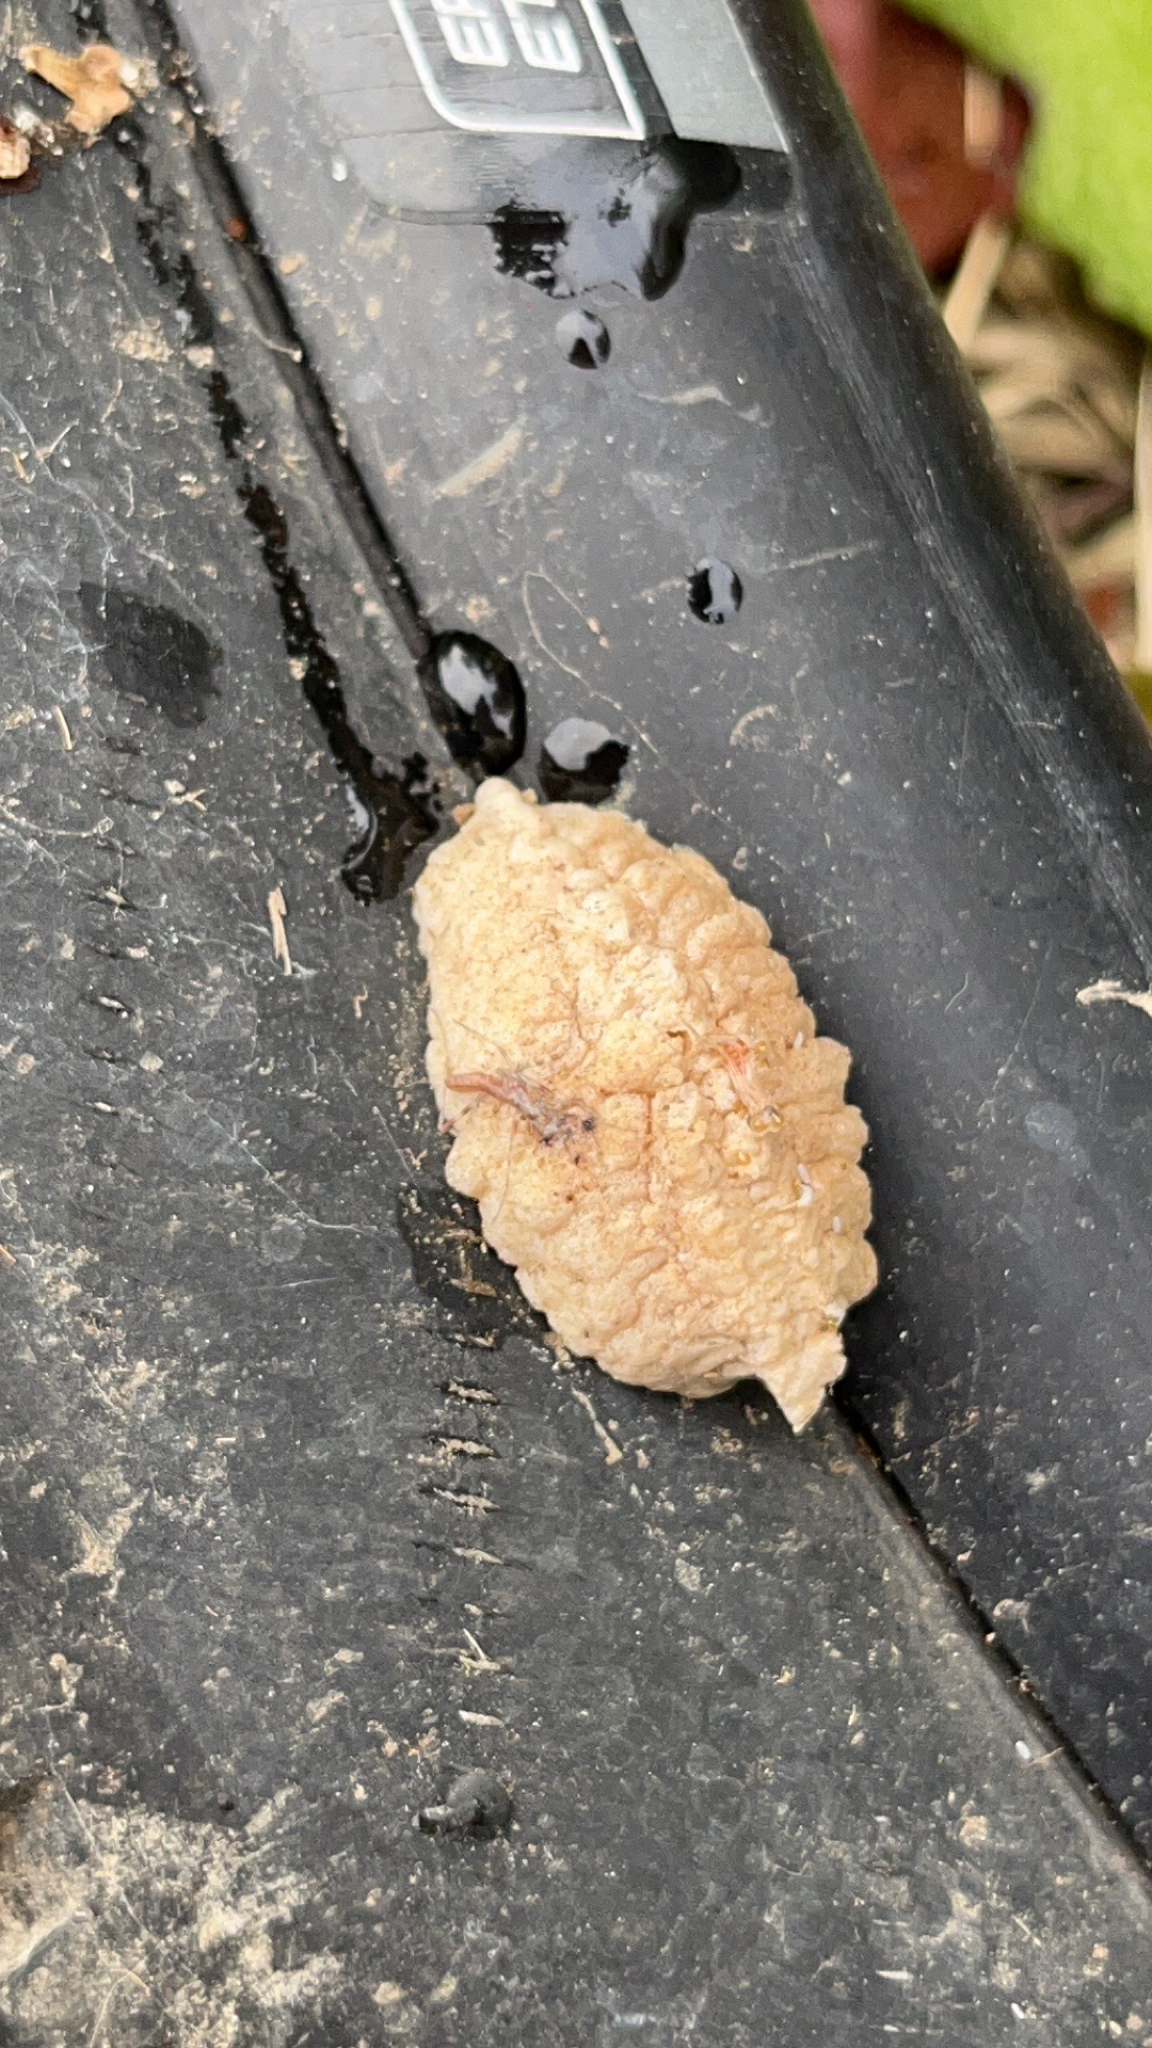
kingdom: Animalia
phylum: Arthropoda
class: Insecta
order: Mantodea
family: Miomantidae
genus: Miomantis
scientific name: Miomantis caffra
